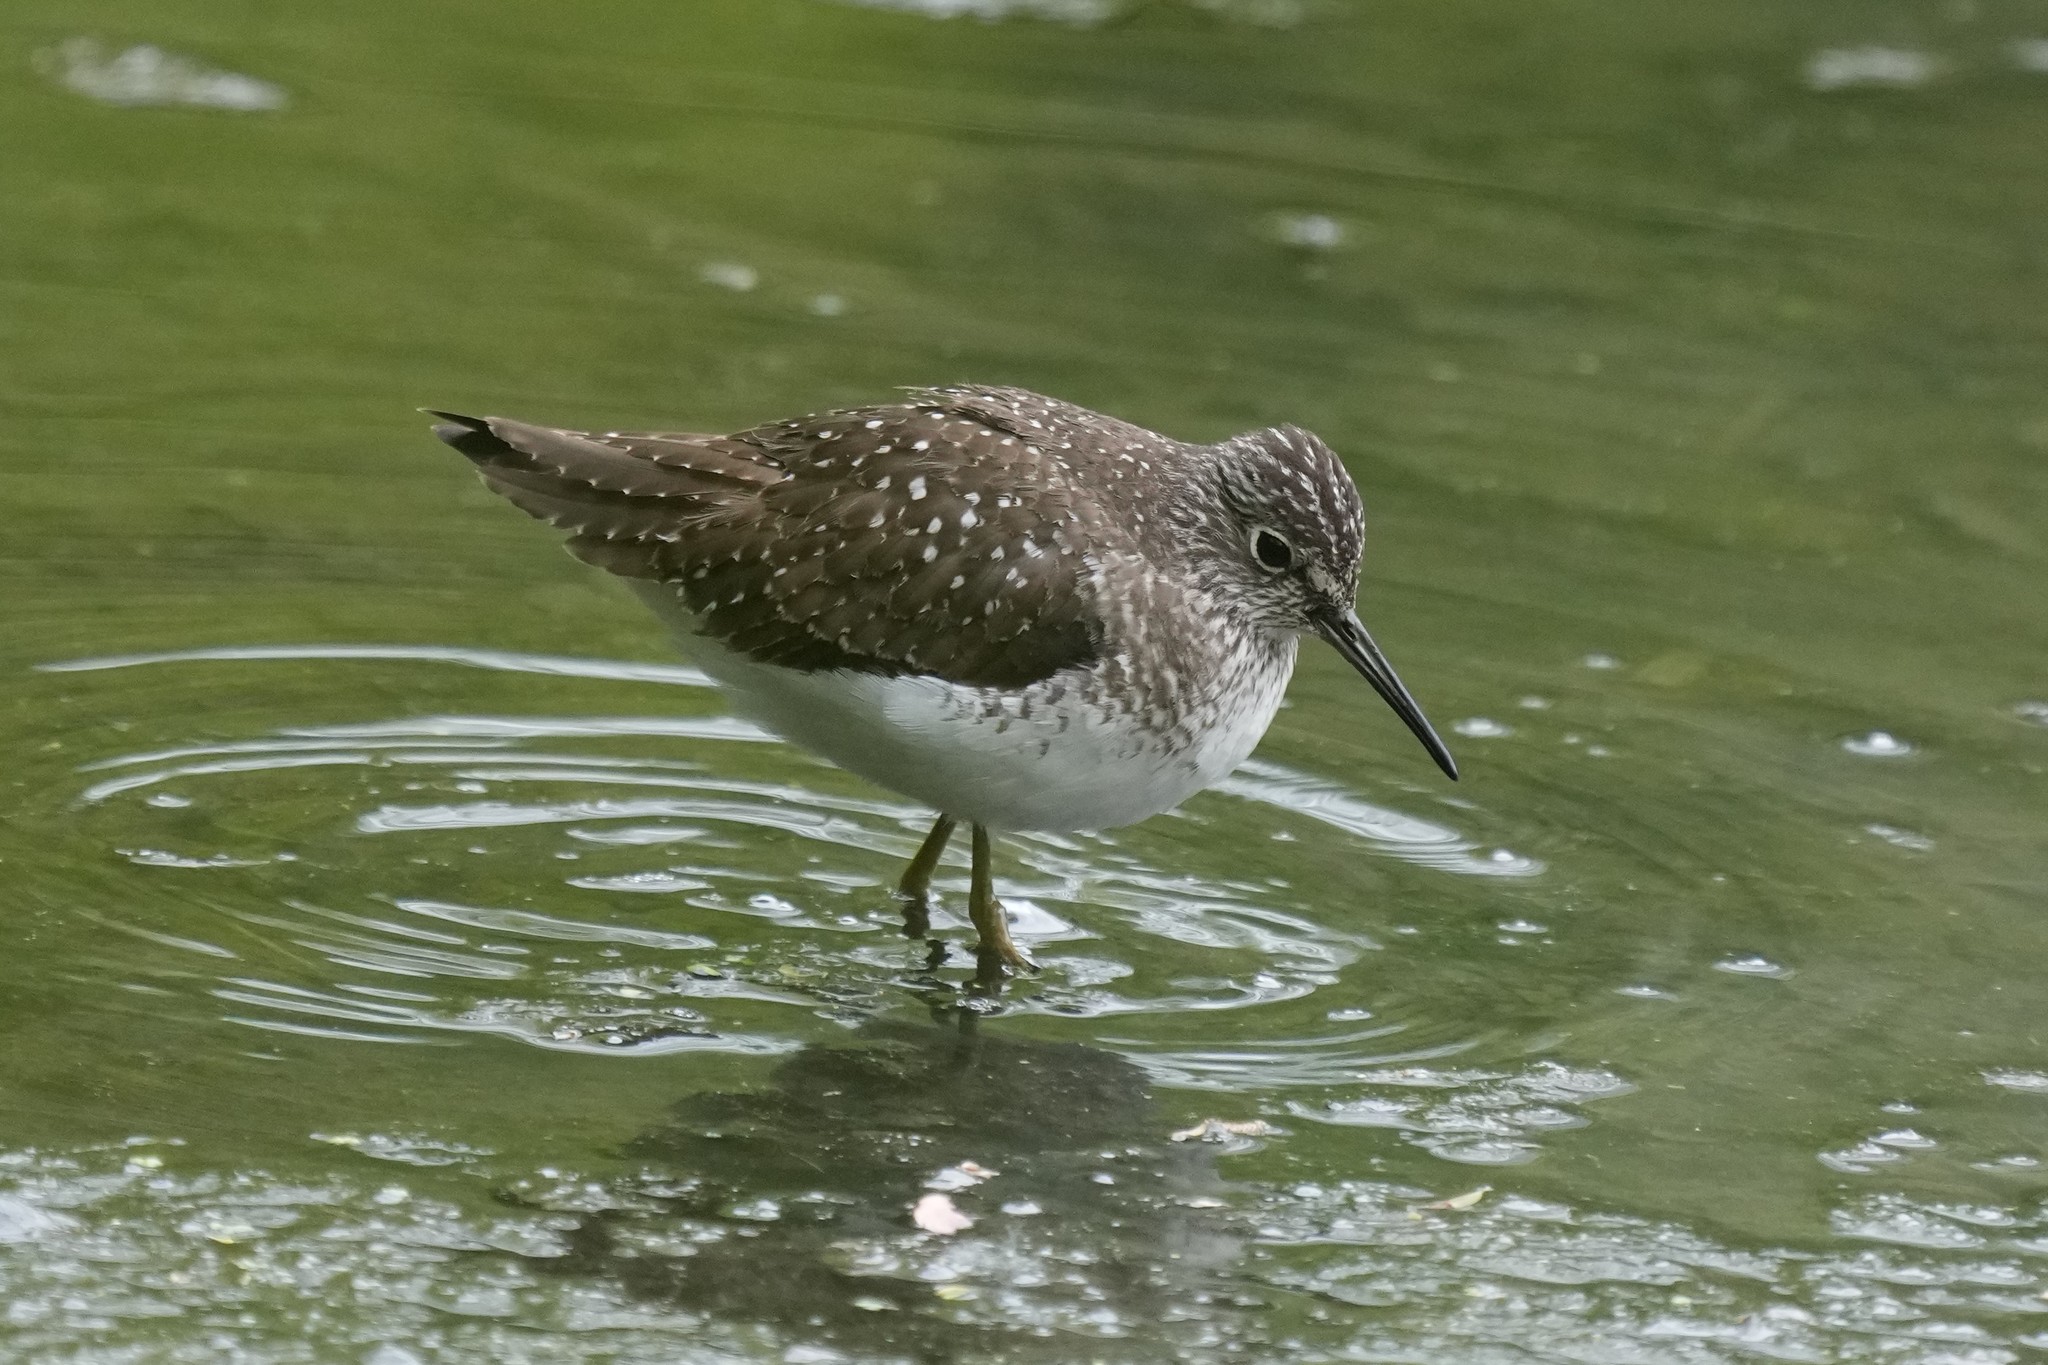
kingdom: Animalia
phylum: Chordata
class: Aves
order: Charadriiformes
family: Scolopacidae
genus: Tringa
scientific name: Tringa solitaria
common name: Solitary sandpiper
